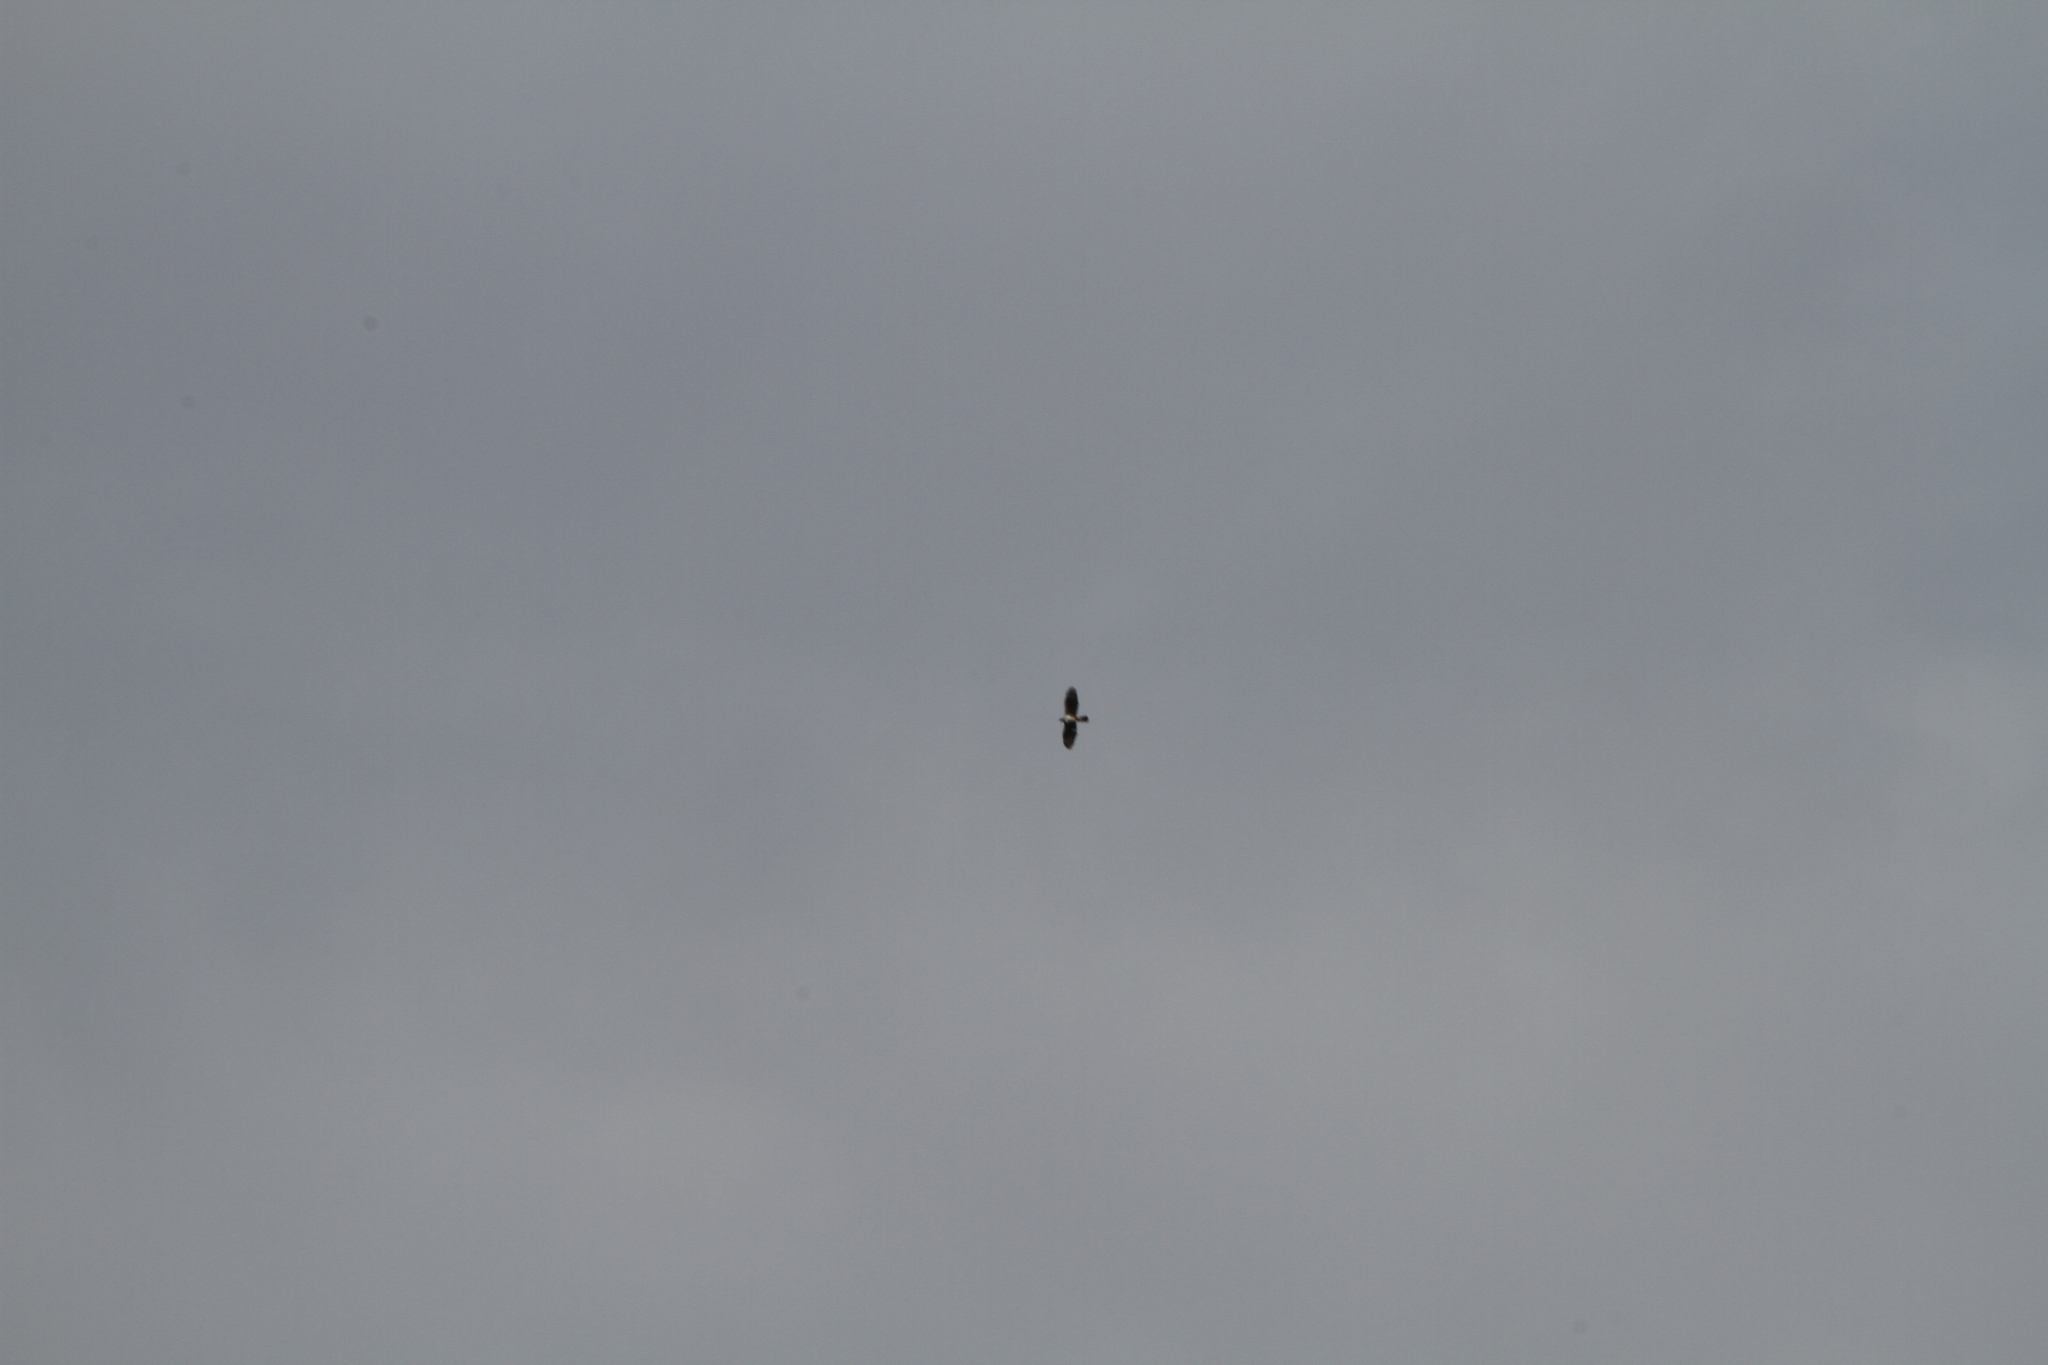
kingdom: Animalia
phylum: Chordata
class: Aves
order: Accipitriformes
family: Accipitridae
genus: Aquila
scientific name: Aquila fasciata
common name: Bonelli's eagle
